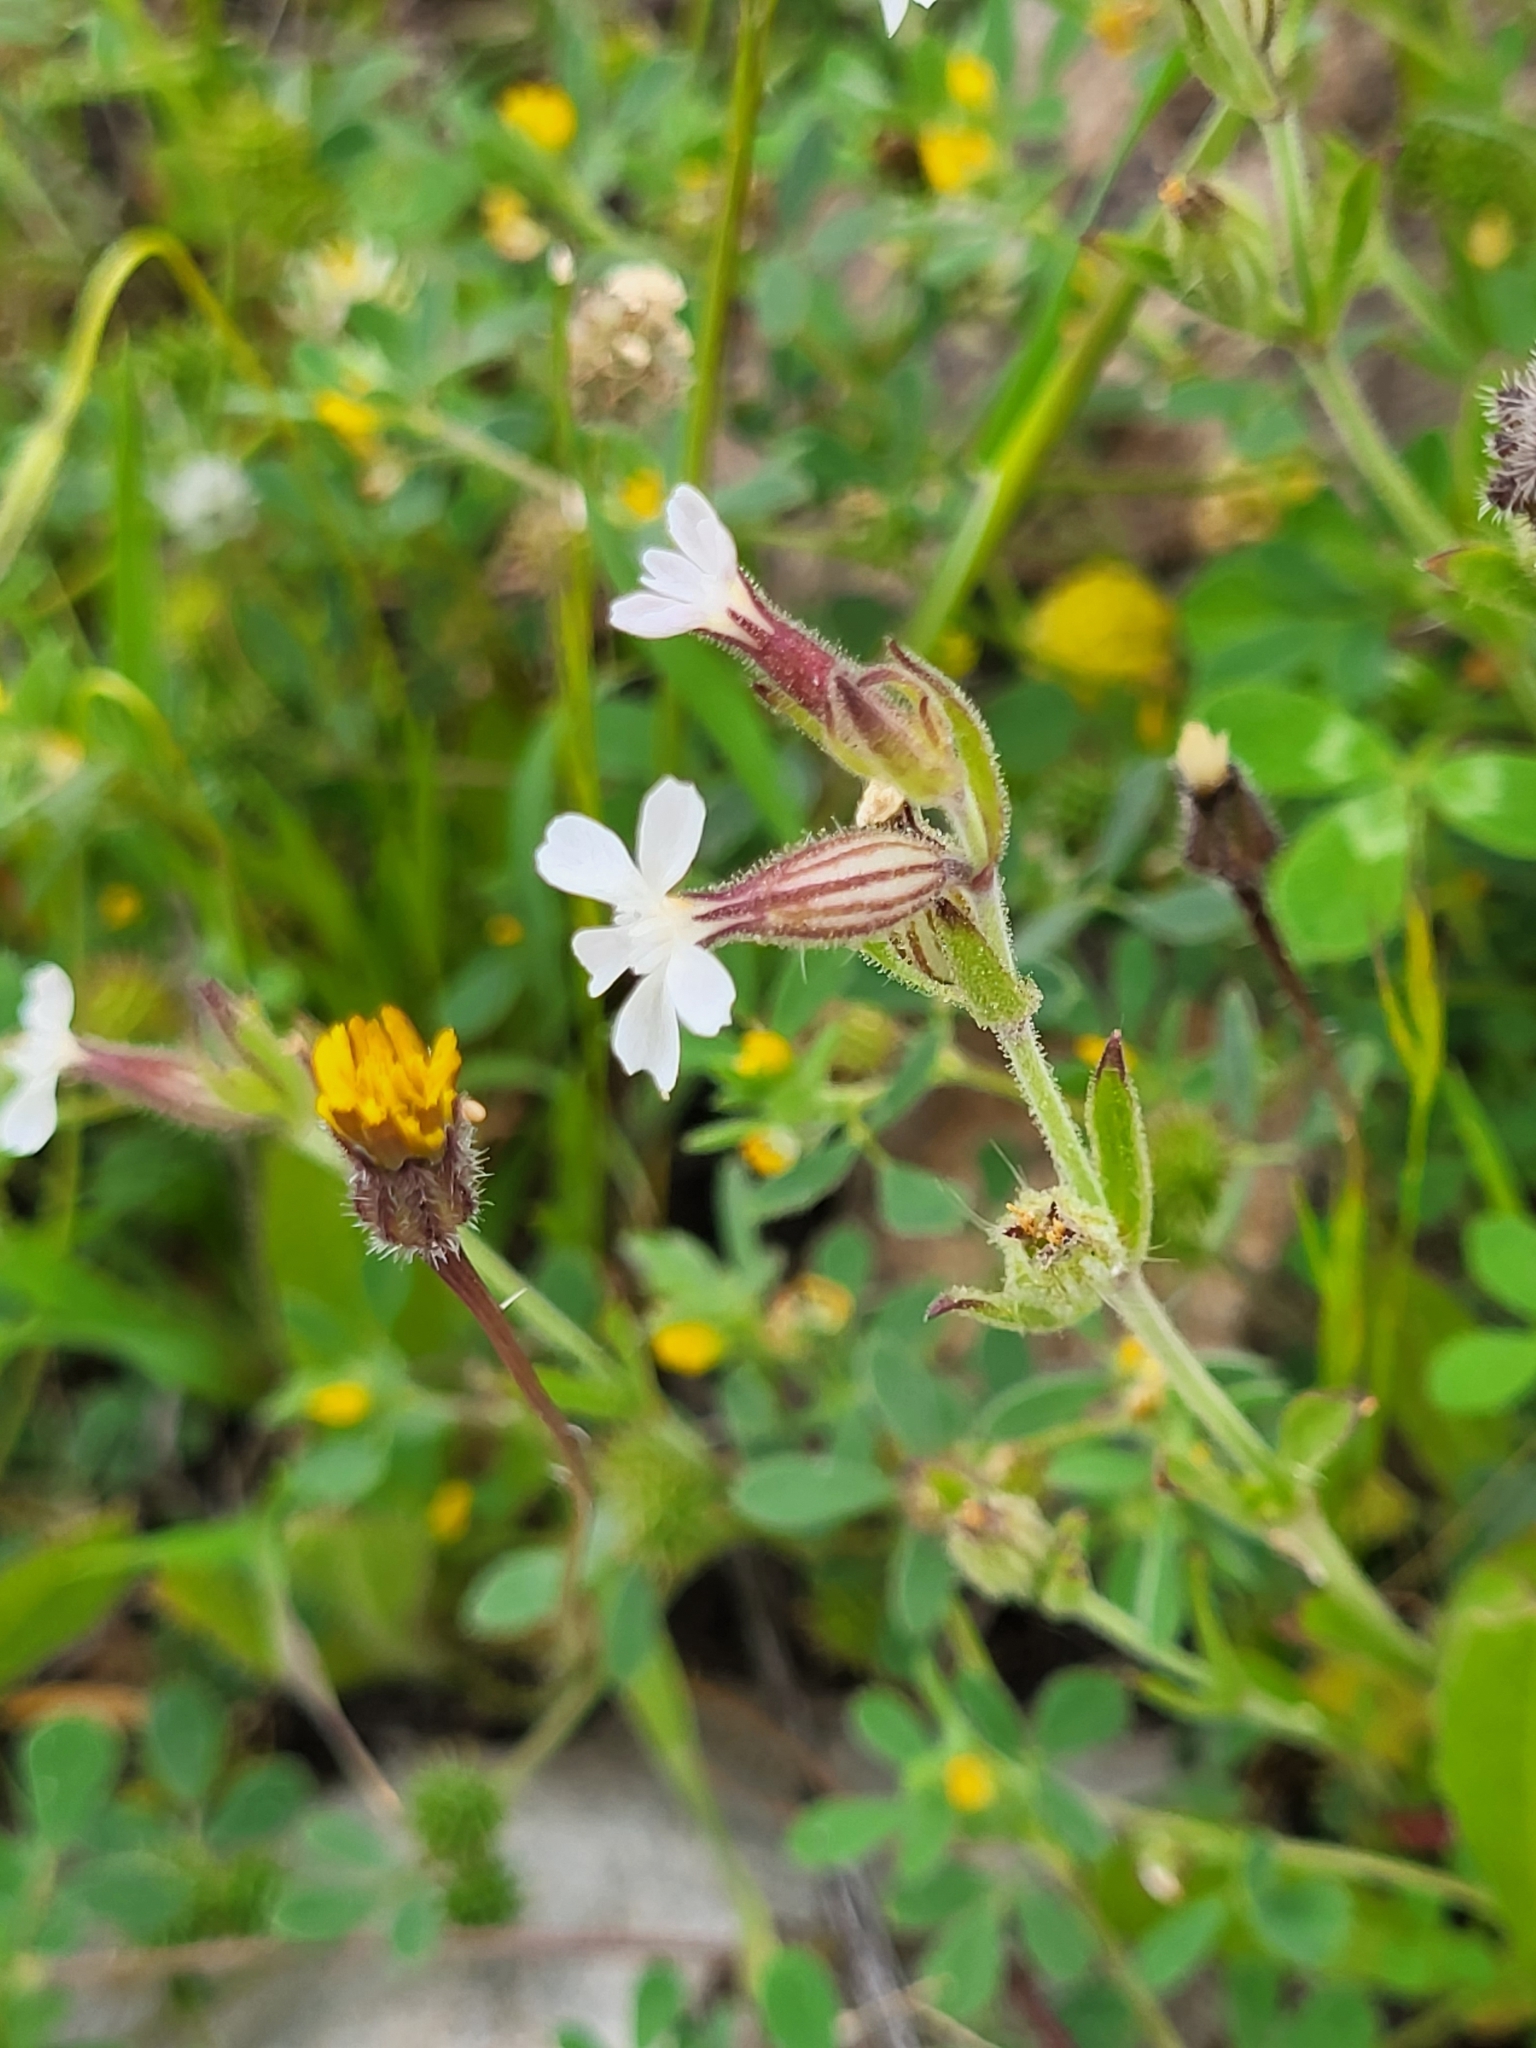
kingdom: Plantae
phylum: Tracheophyta
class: Magnoliopsida
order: Caryophyllales
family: Caryophyllaceae
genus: Silene
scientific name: Silene gallica
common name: Small-flowered catchfly
